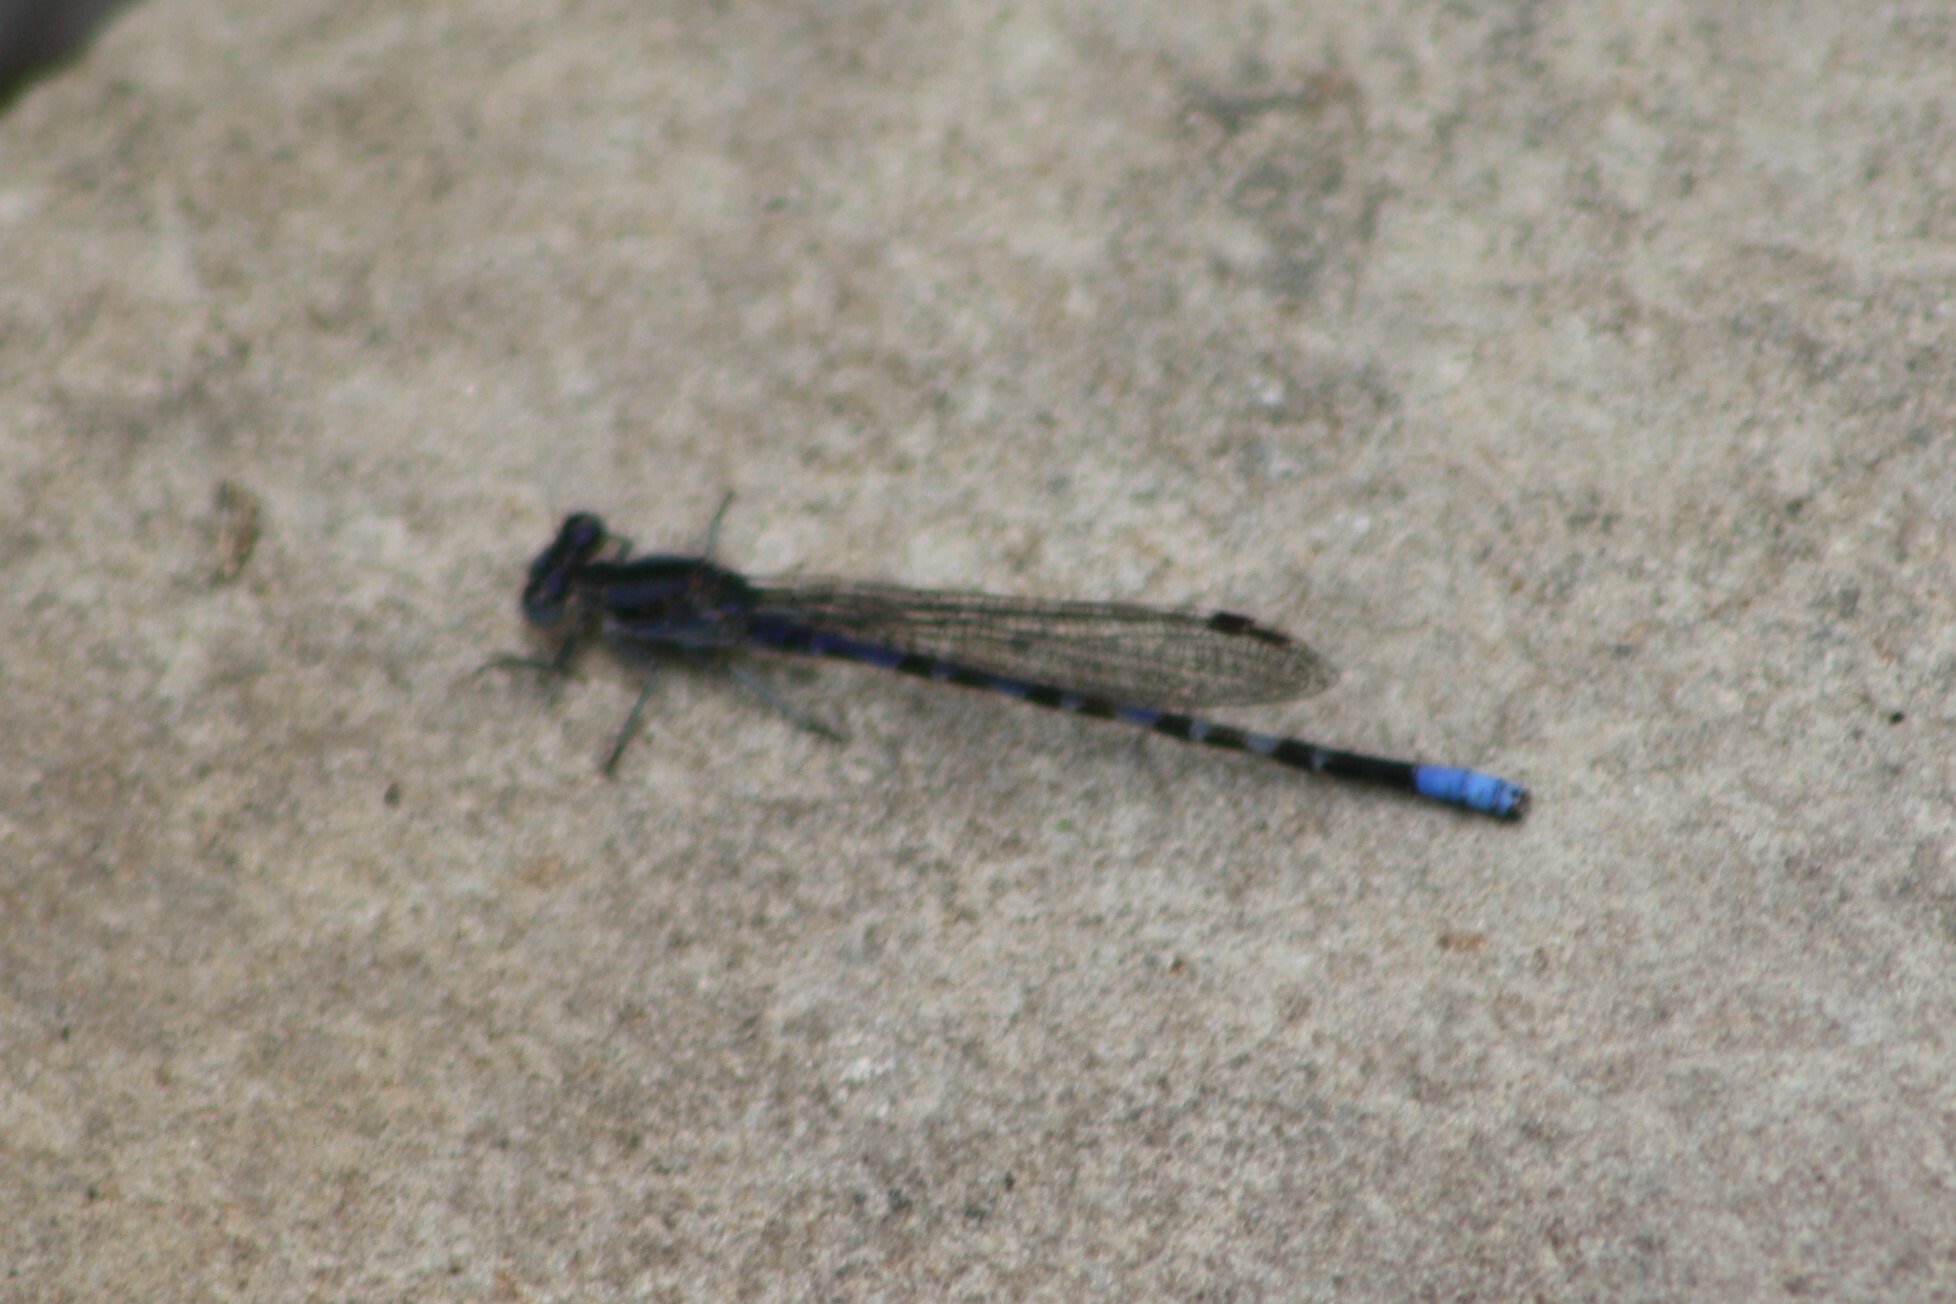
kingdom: Animalia
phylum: Arthropoda
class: Insecta
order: Odonata
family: Coenagrionidae
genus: Argia
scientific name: Argia immunda
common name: Kiowa dancer
